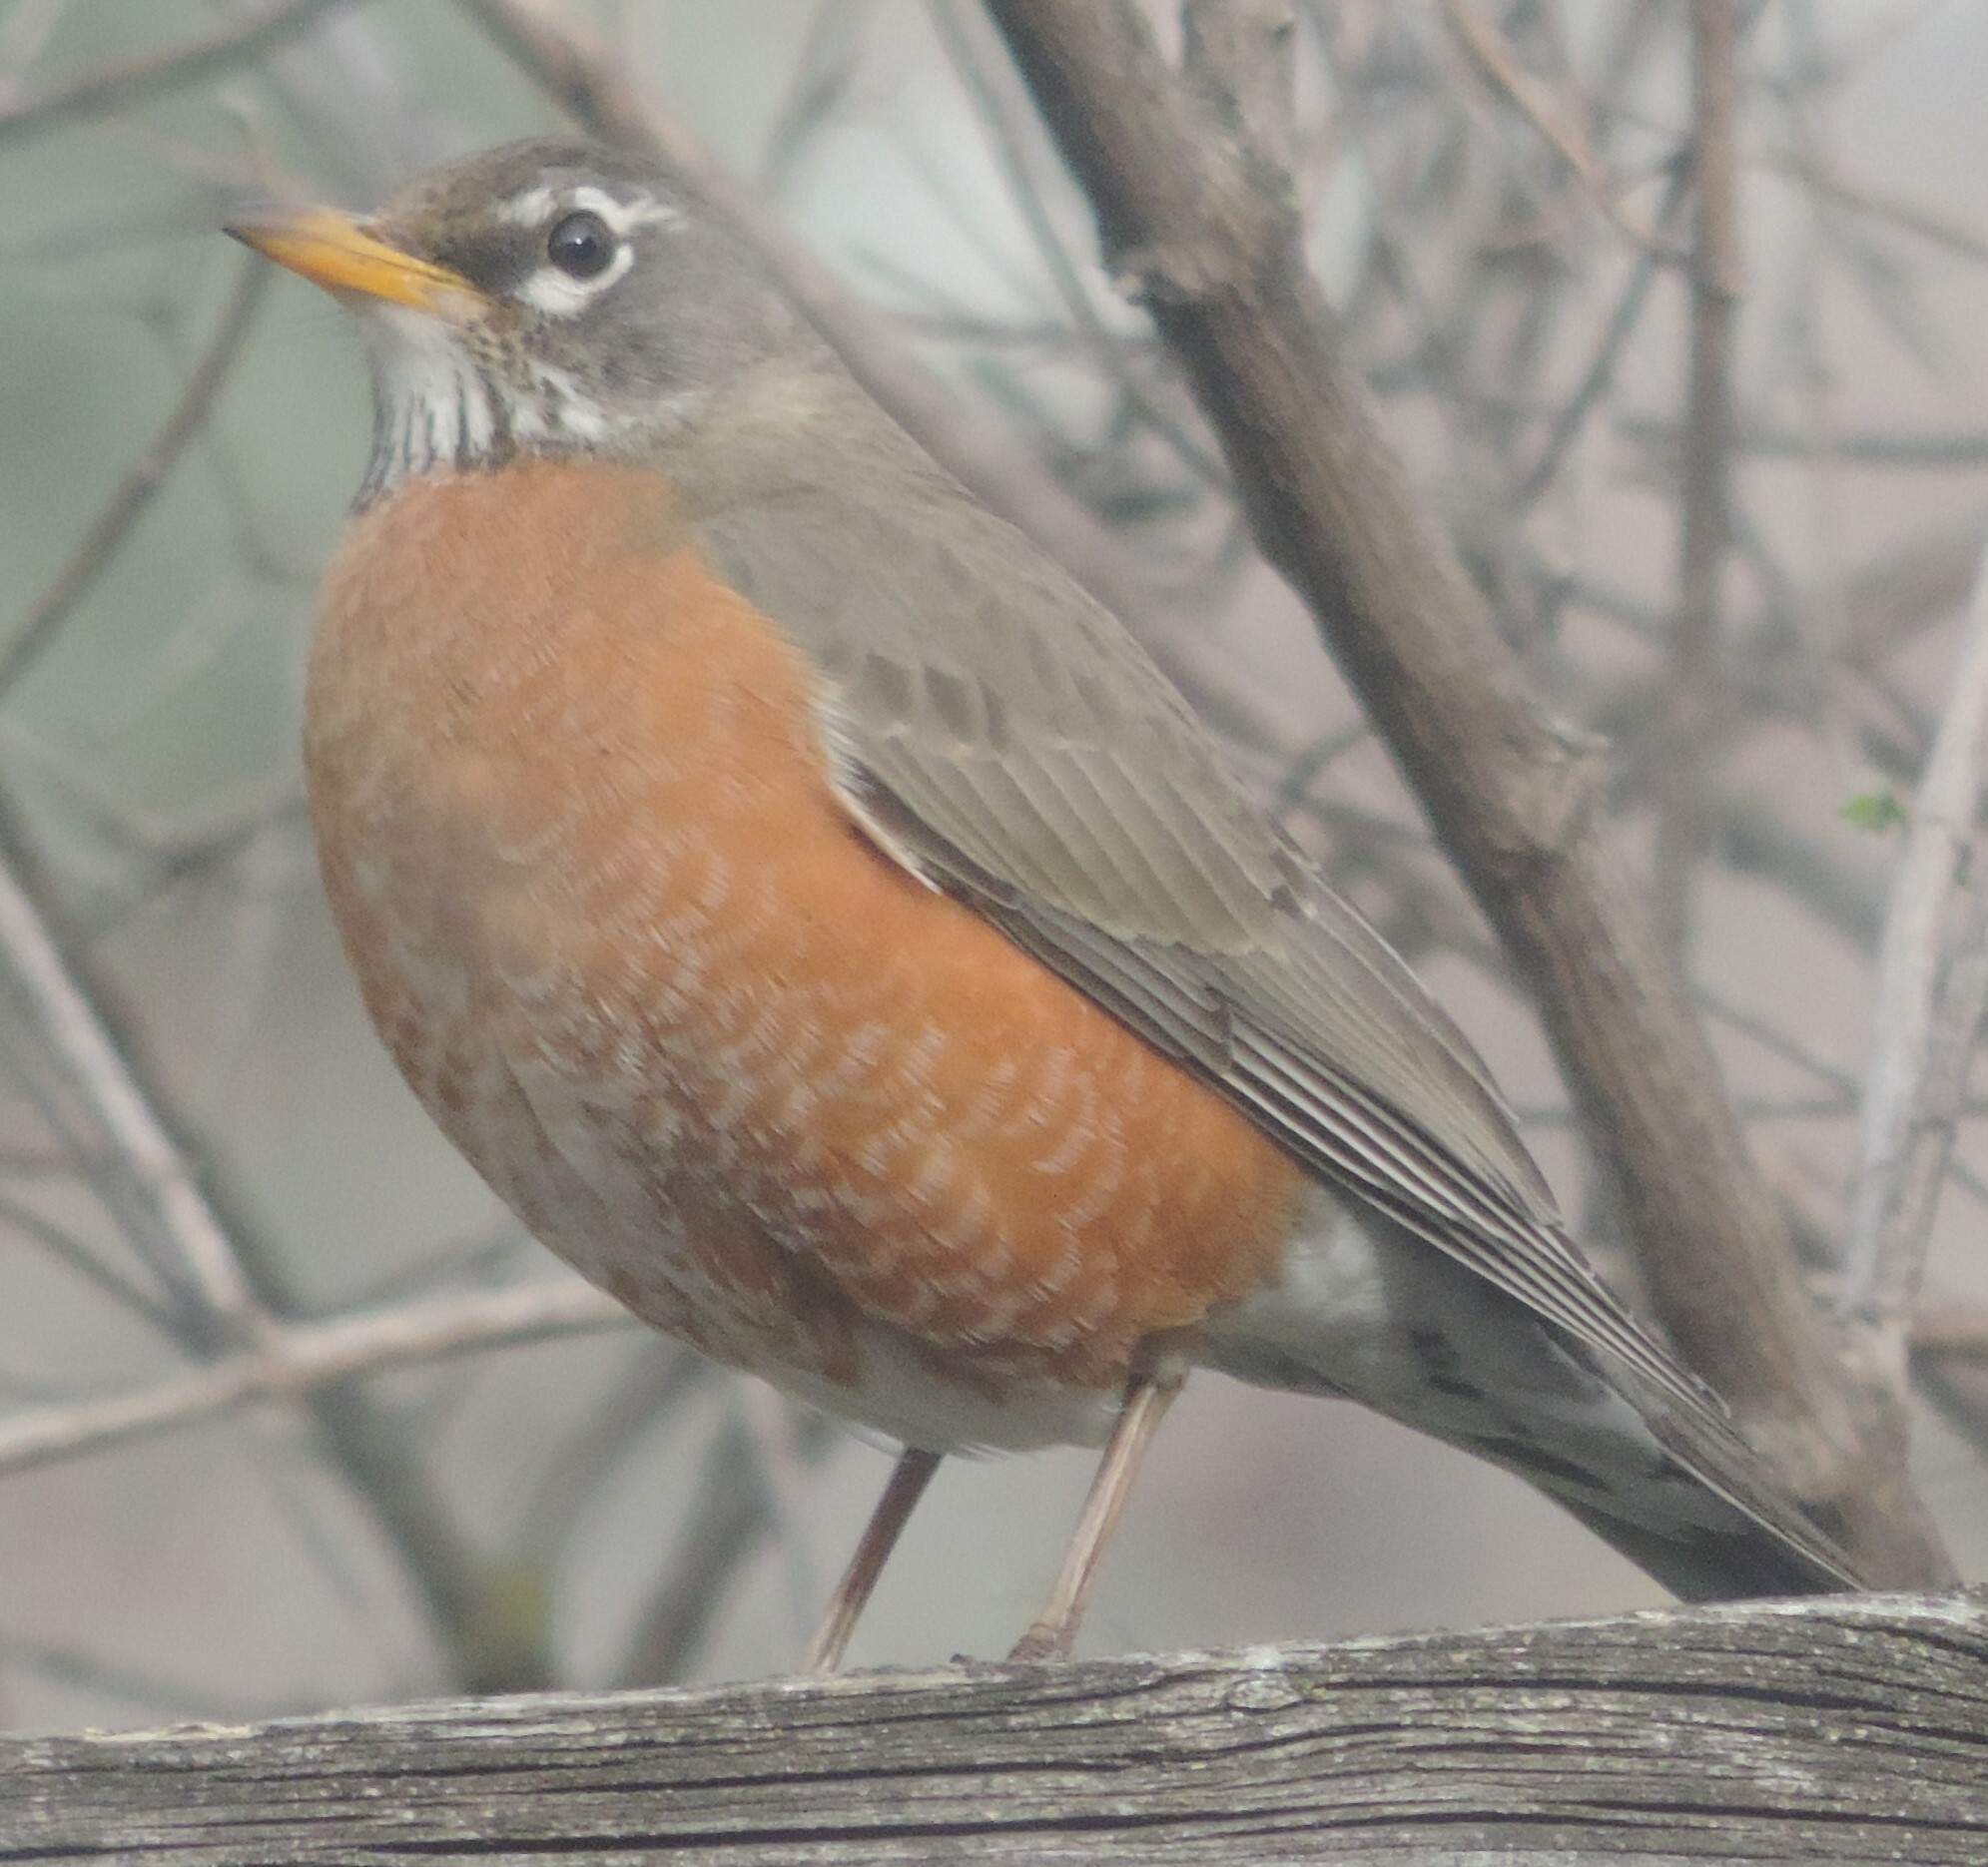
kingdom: Animalia
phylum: Chordata
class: Aves
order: Passeriformes
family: Turdidae
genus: Turdus
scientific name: Turdus migratorius
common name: American robin
